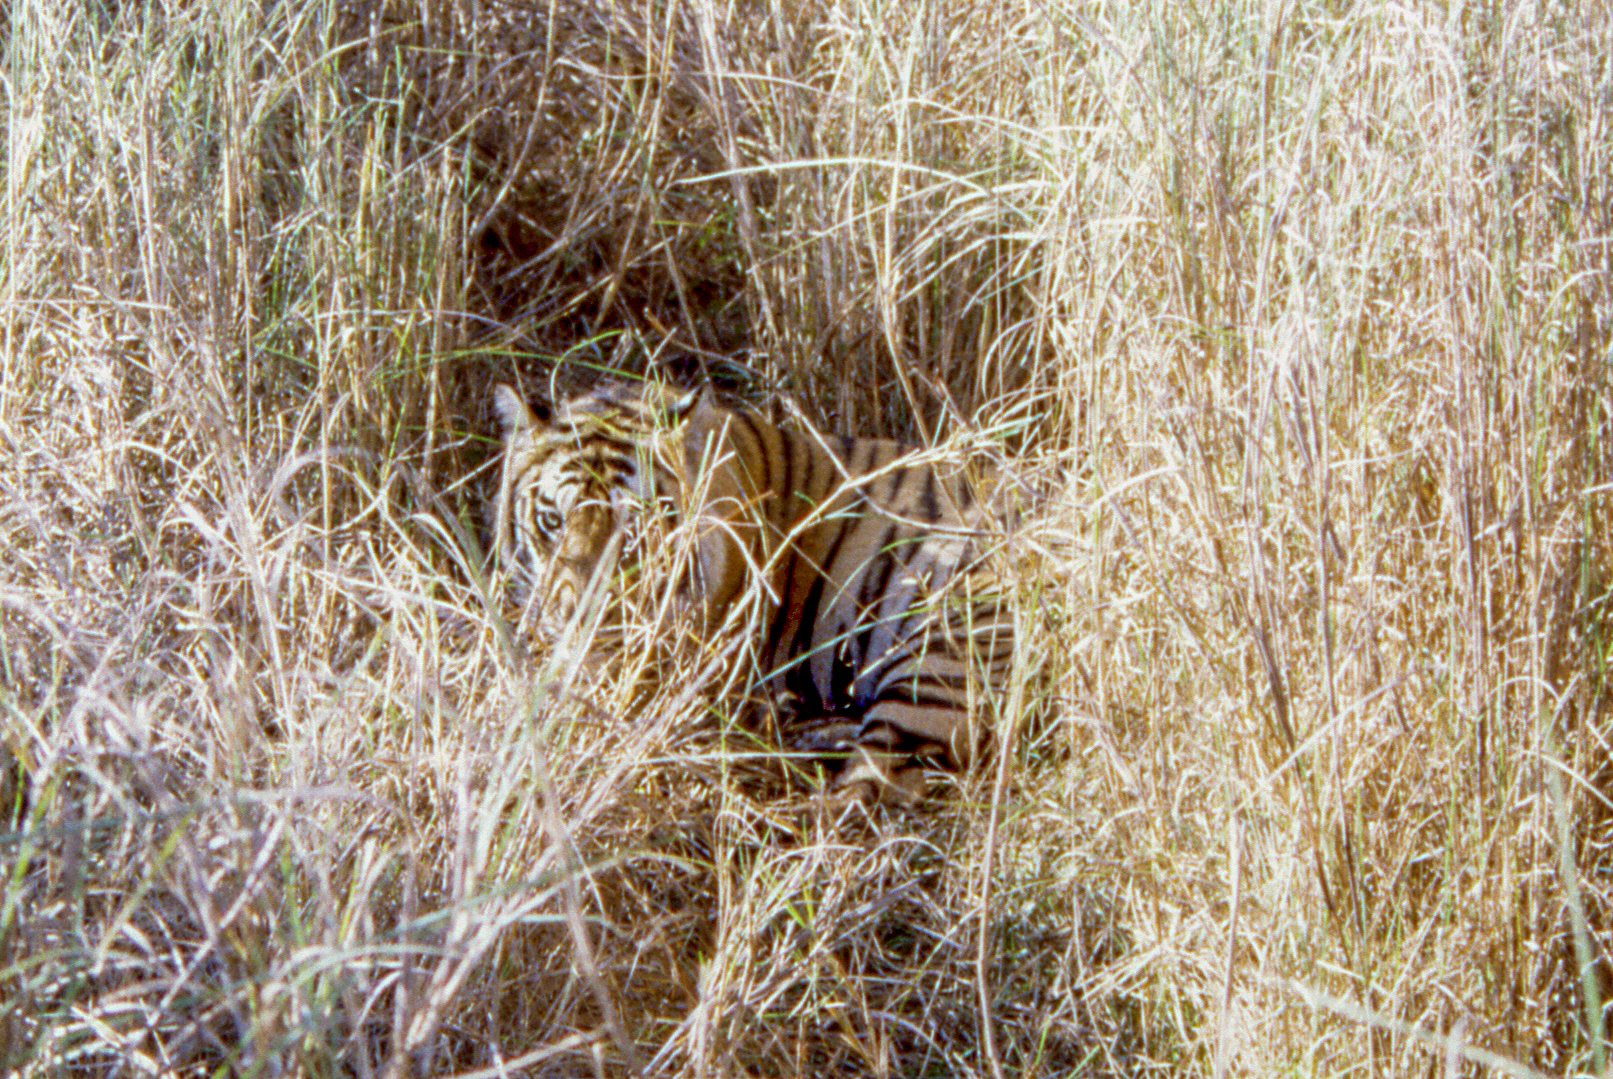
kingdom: Animalia
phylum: Chordata
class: Mammalia
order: Carnivora
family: Felidae
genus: Panthera
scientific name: Panthera tigris
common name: Tiger
